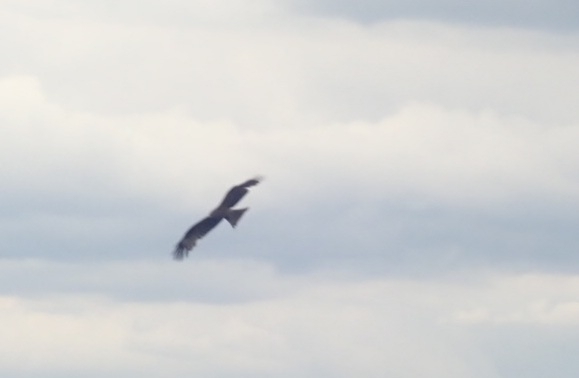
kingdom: Animalia
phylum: Chordata
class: Aves
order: Accipitriformes
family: Accipitridae
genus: Milvus
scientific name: Milvus migrans
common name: Black kite
